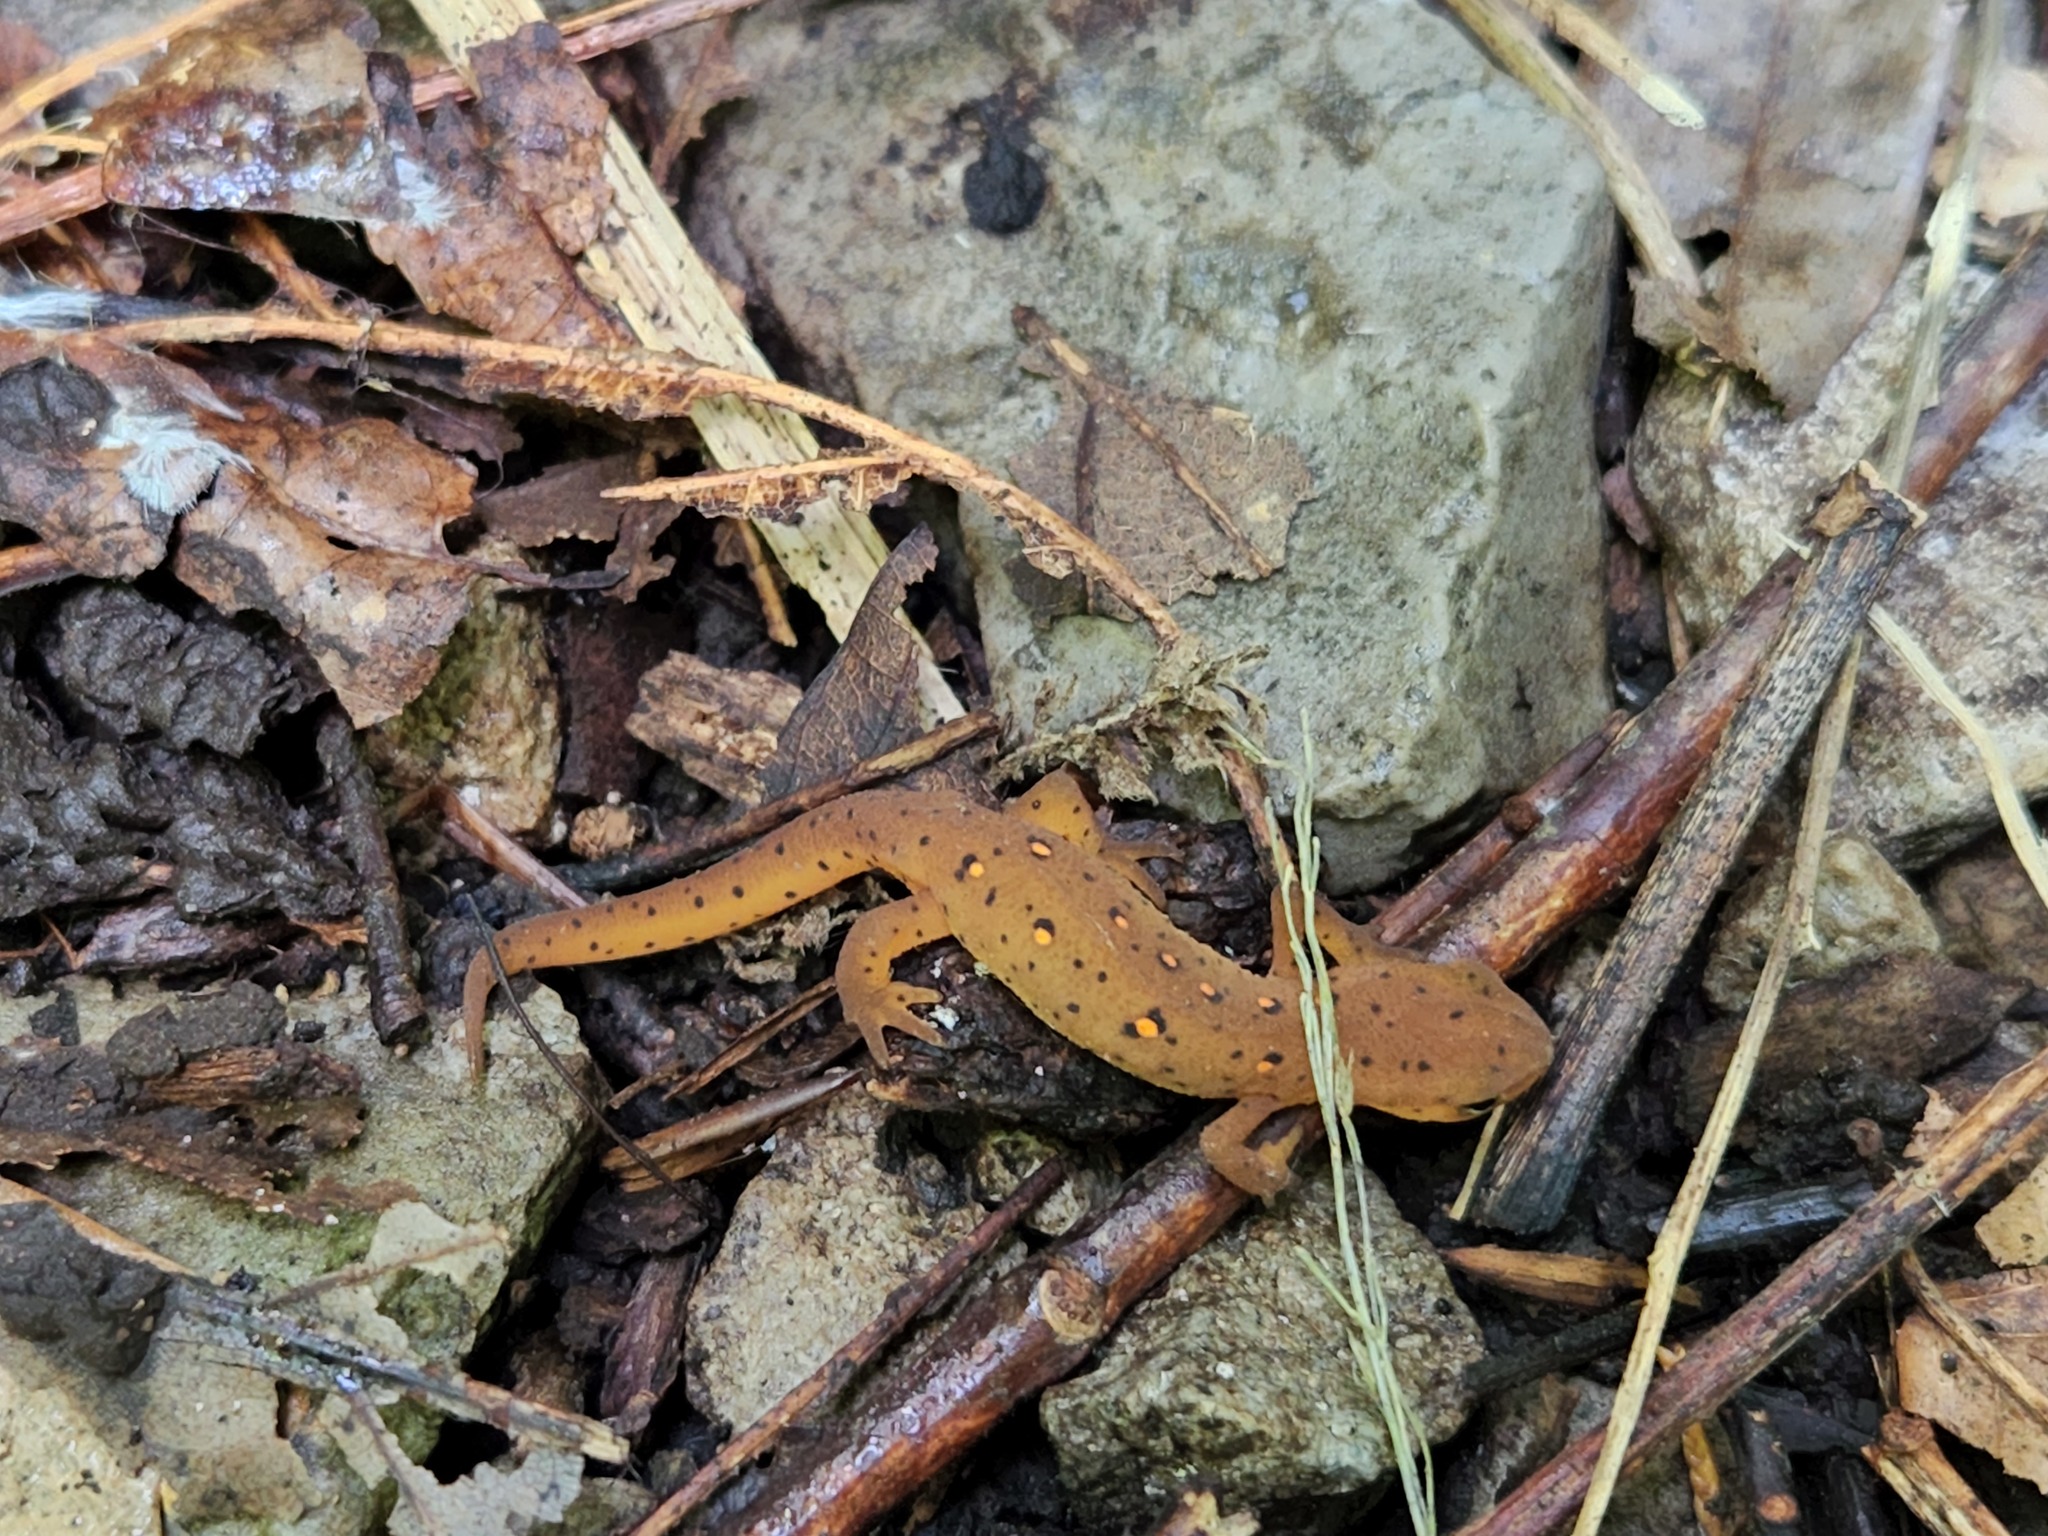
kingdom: Animalia
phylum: Chordata
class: Amphibia
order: Caudata
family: Salamandridae
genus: Notophthalmus
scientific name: Notophthalmus viridescens
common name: Eastern newt
